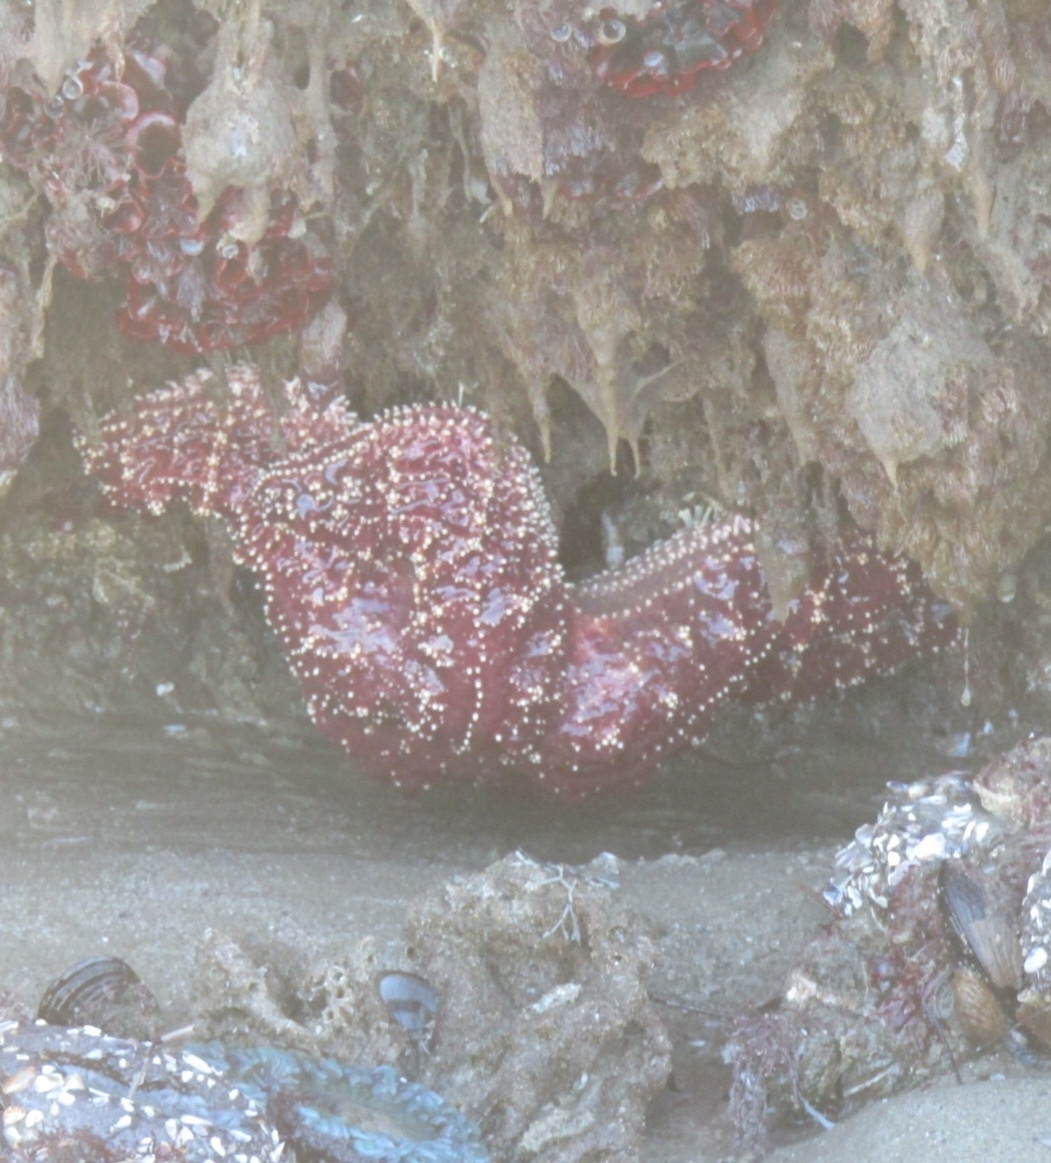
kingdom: Animalia
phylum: Echinodermata
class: Asteroidea
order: Forcipulatida
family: Asteriidae
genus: Pisaster
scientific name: Pisaster ochraceus
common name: Ochre stars
